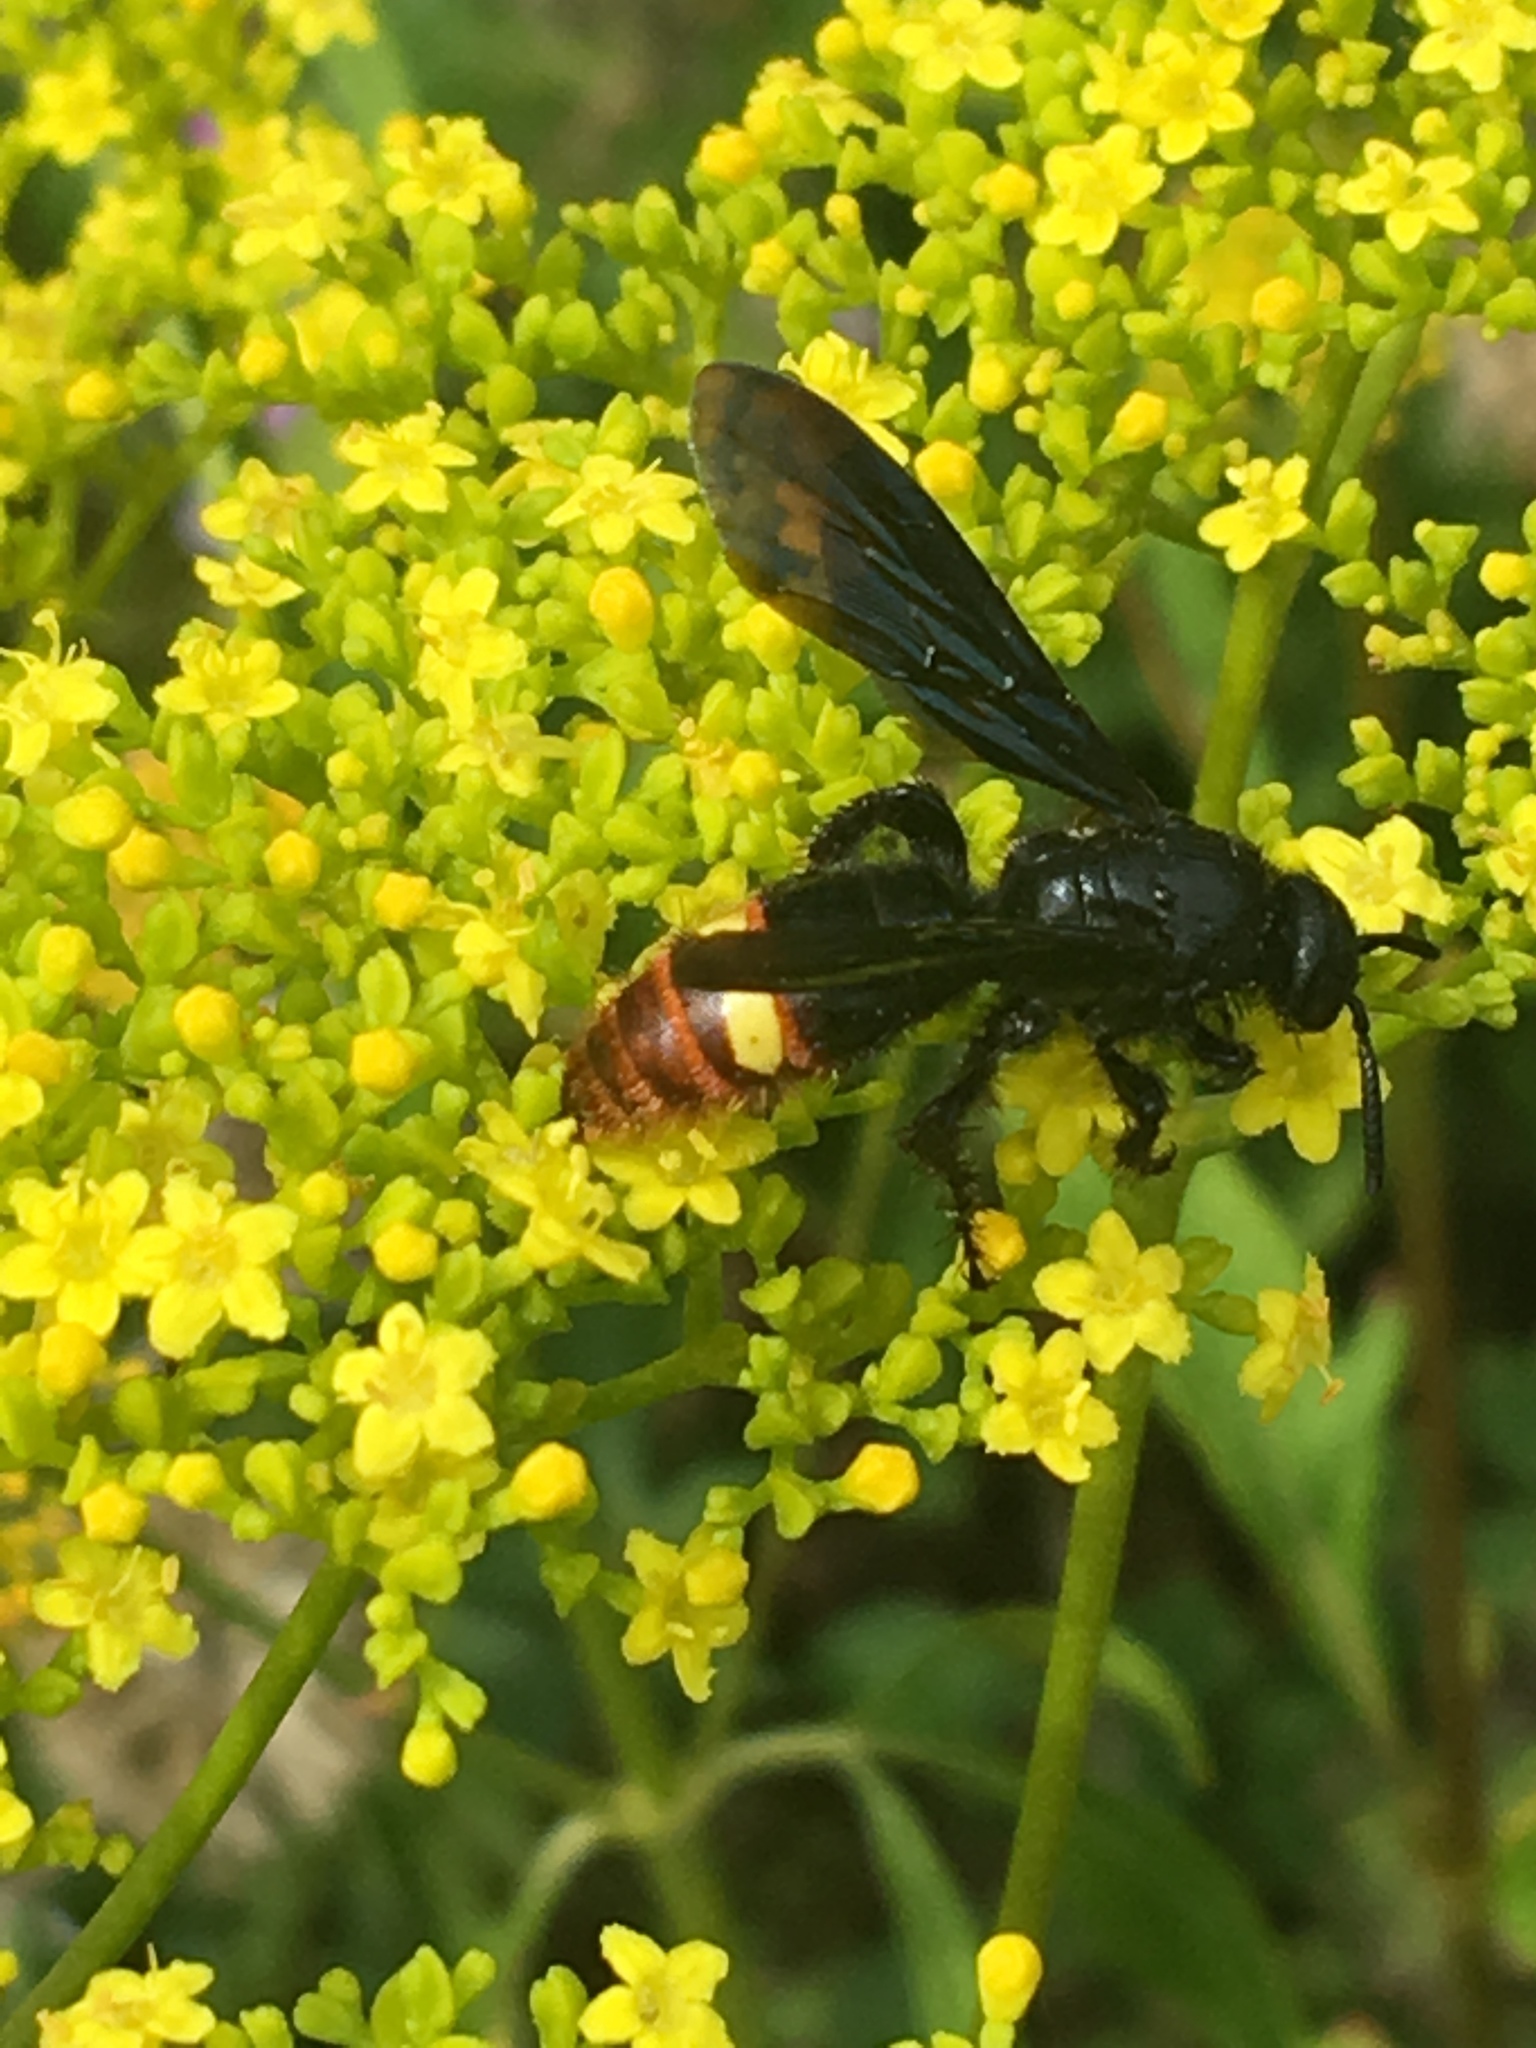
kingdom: Animalia
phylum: Arthropoda
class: Insecta
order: Hymenoptera
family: Scoliidae
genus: Scolia
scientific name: Scolia dubia
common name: Blue-winged scoliid wasp
